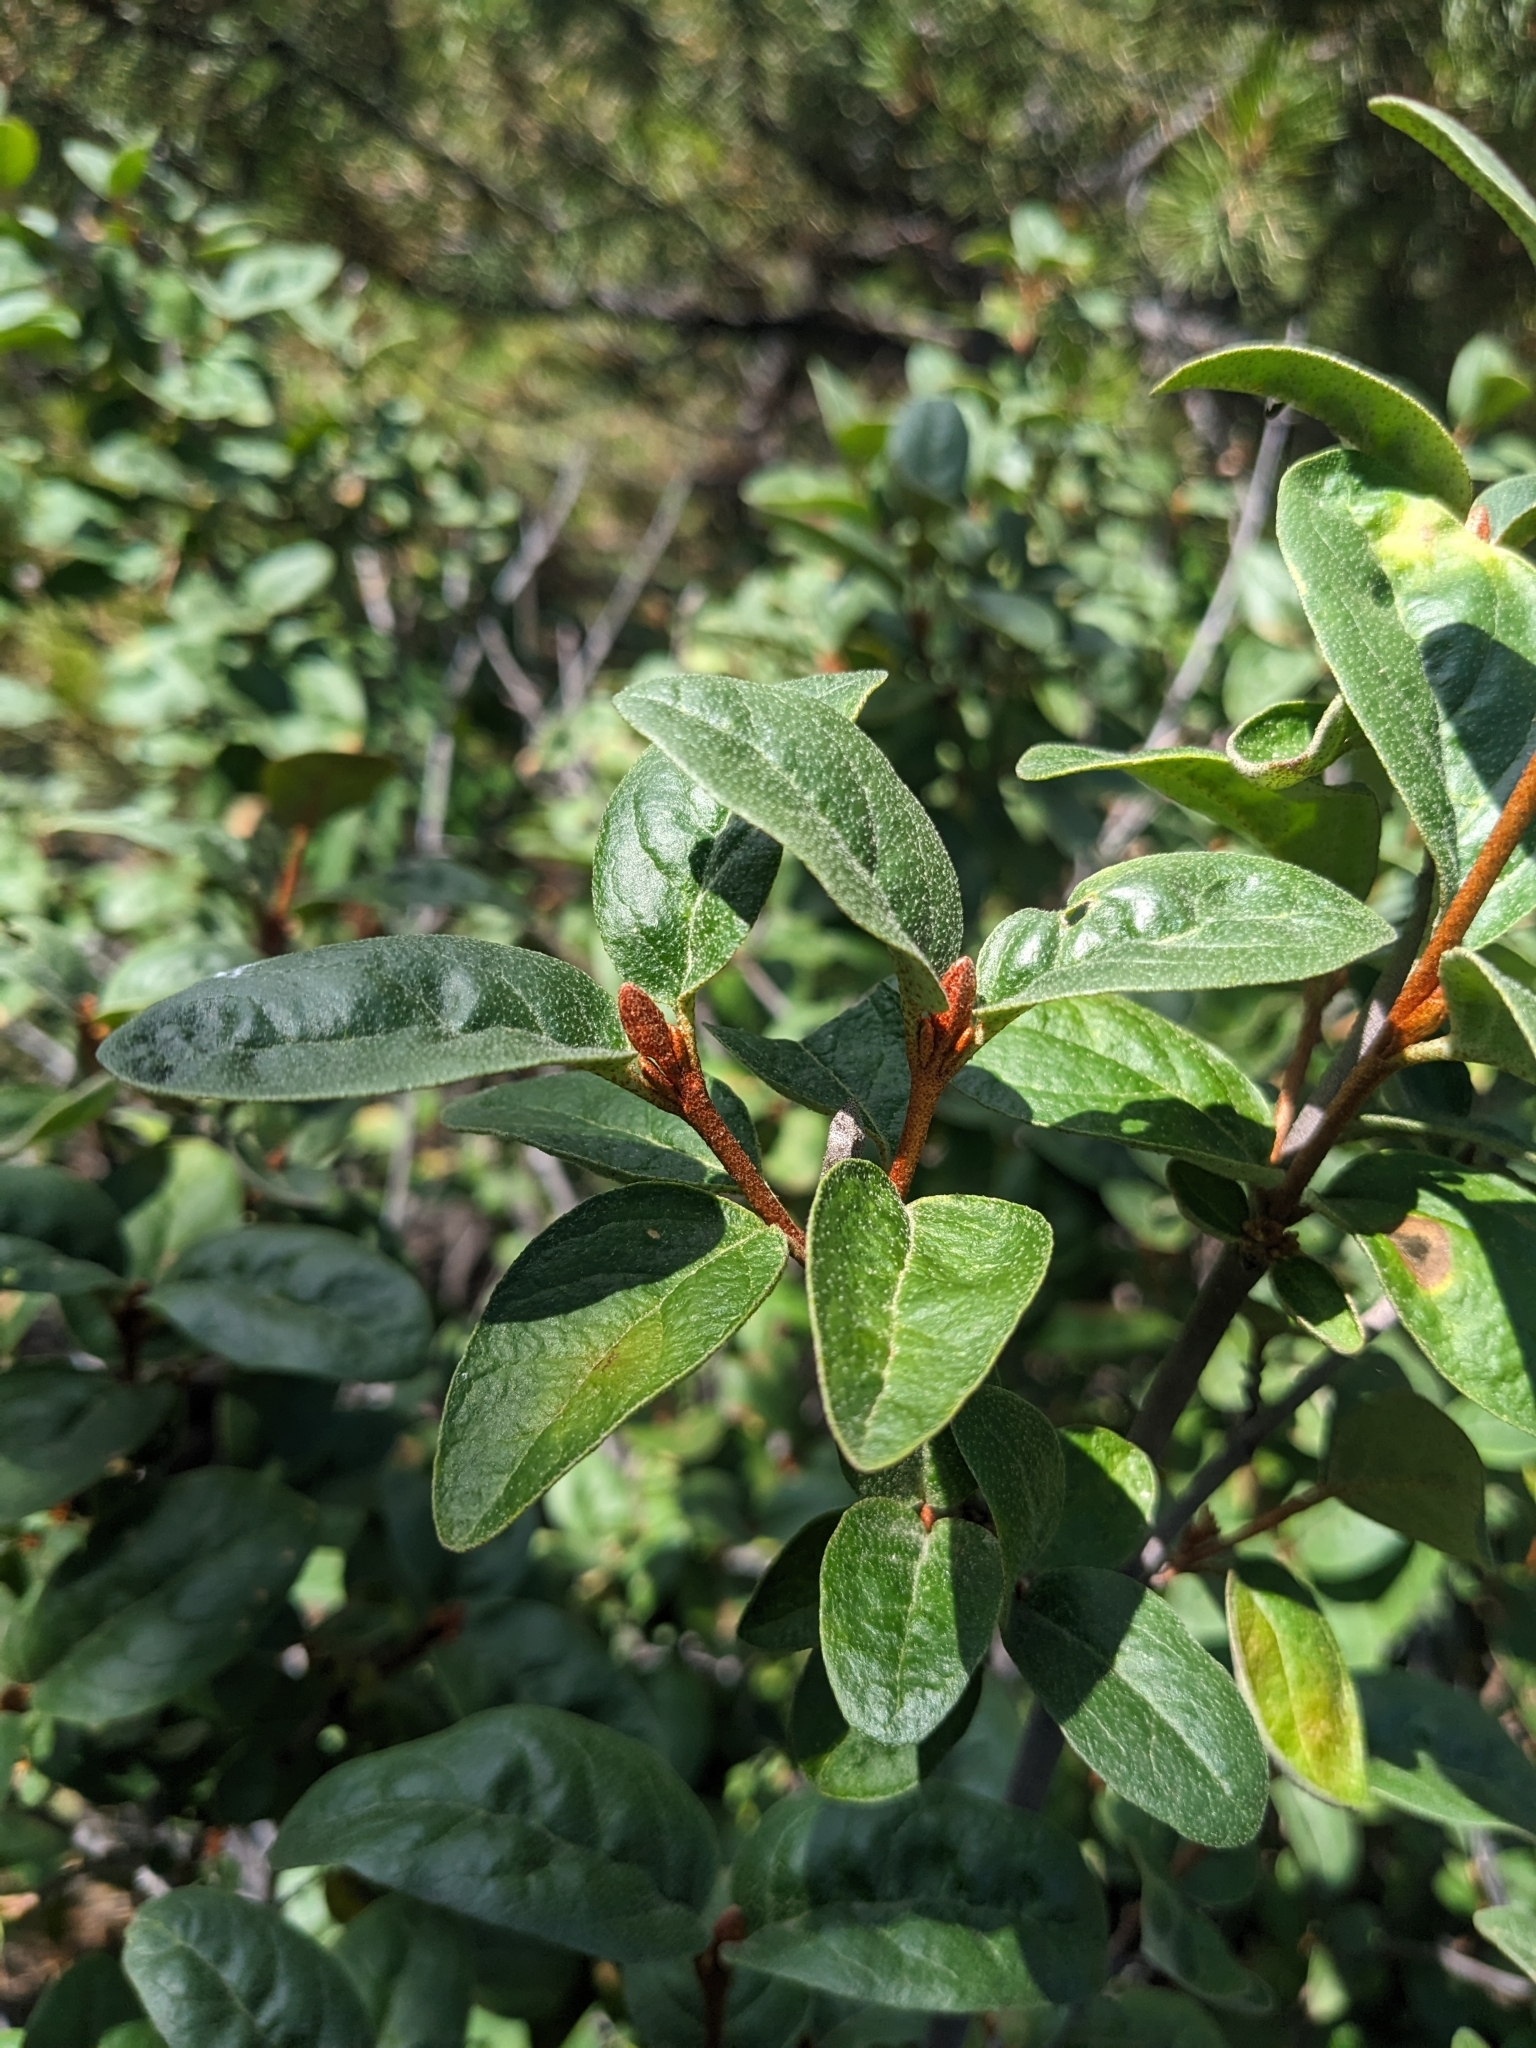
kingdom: Plantae
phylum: Tracheophyta
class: Magnoliopsida
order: Rosales
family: Elaeagnaceae
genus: Shepherdia
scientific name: Shepherdia canadensis
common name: Soapberry
